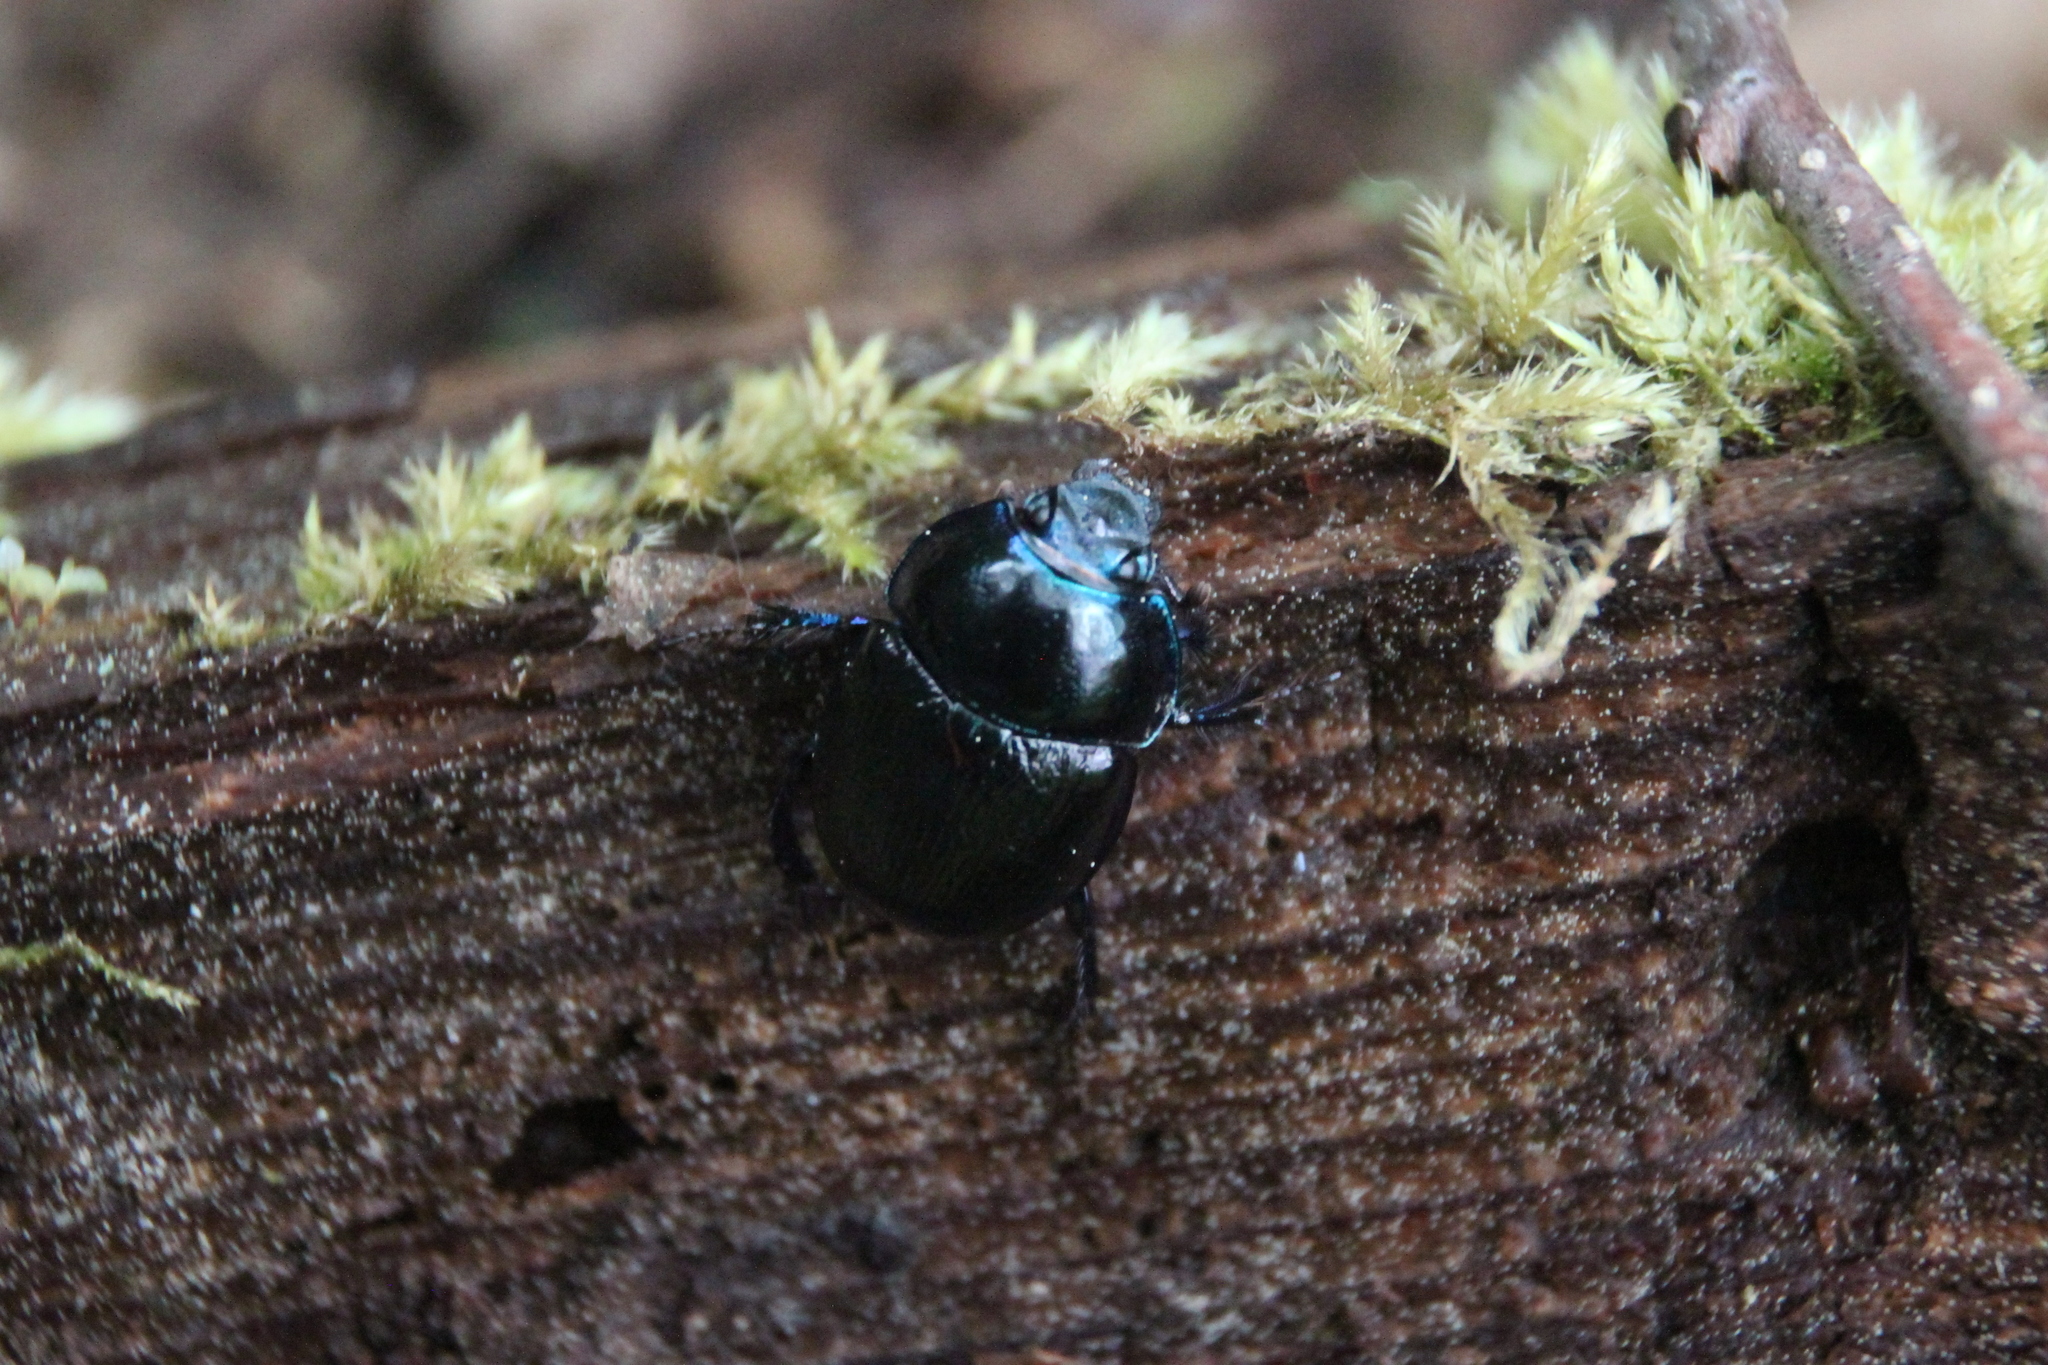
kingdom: Animalia
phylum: Arthropoda
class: Insecta
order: Coleoptera
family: Geotrupidae
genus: Anoplotrupes
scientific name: Anoplotrupes stercorosus
